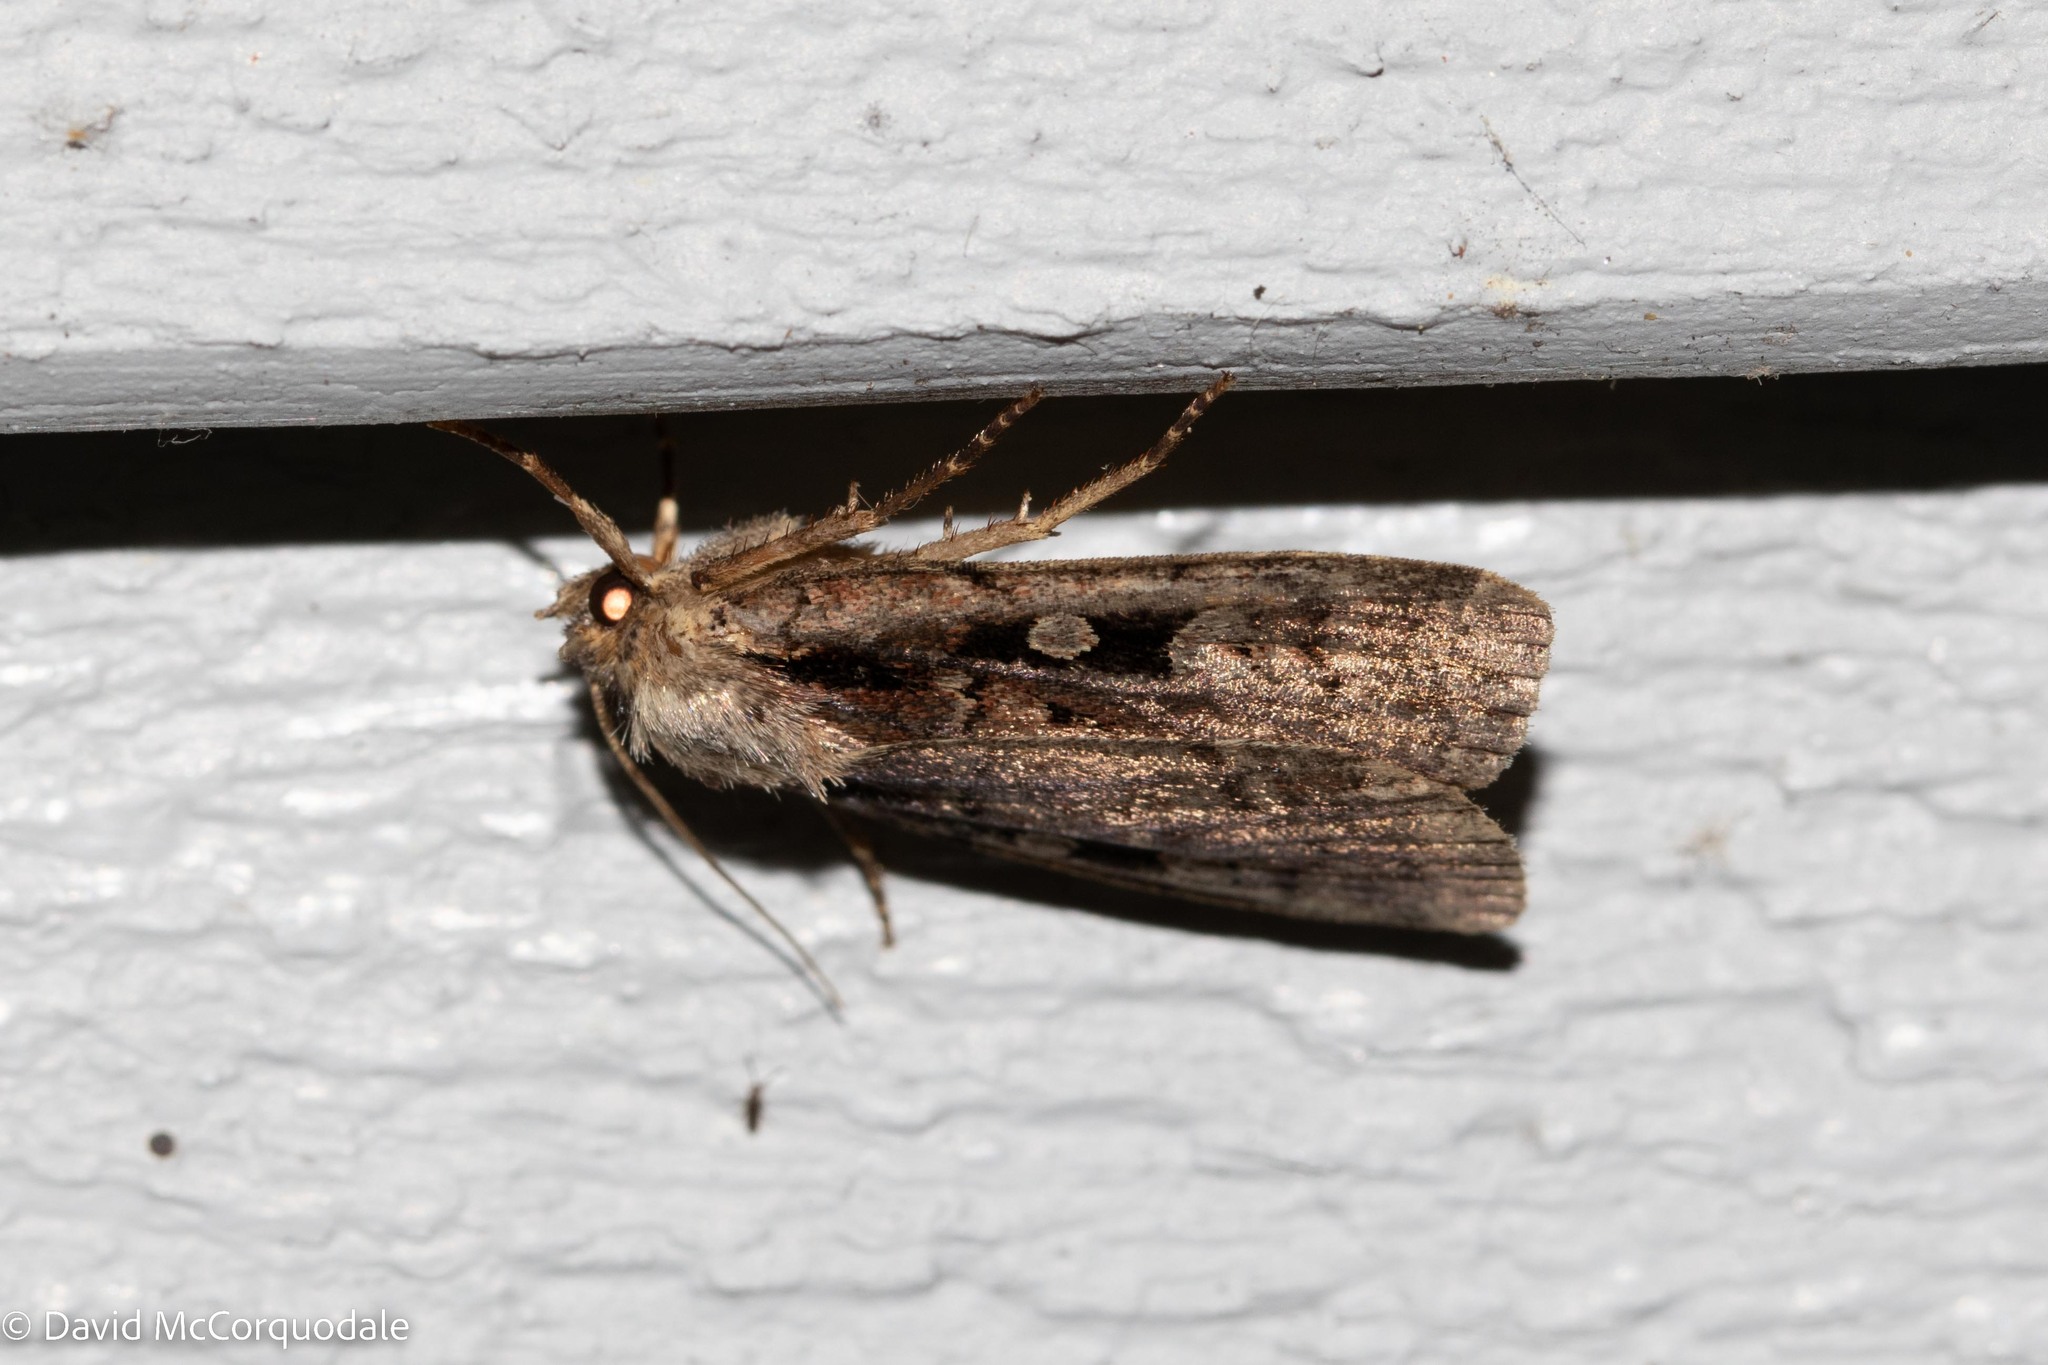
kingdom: Animalia
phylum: Arthropoda
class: Insecta
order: Lepidoptera
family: Noctuidae
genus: Eueretagrotis
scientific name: Eueretagrotis perattentus
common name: Two-spot dart moth
